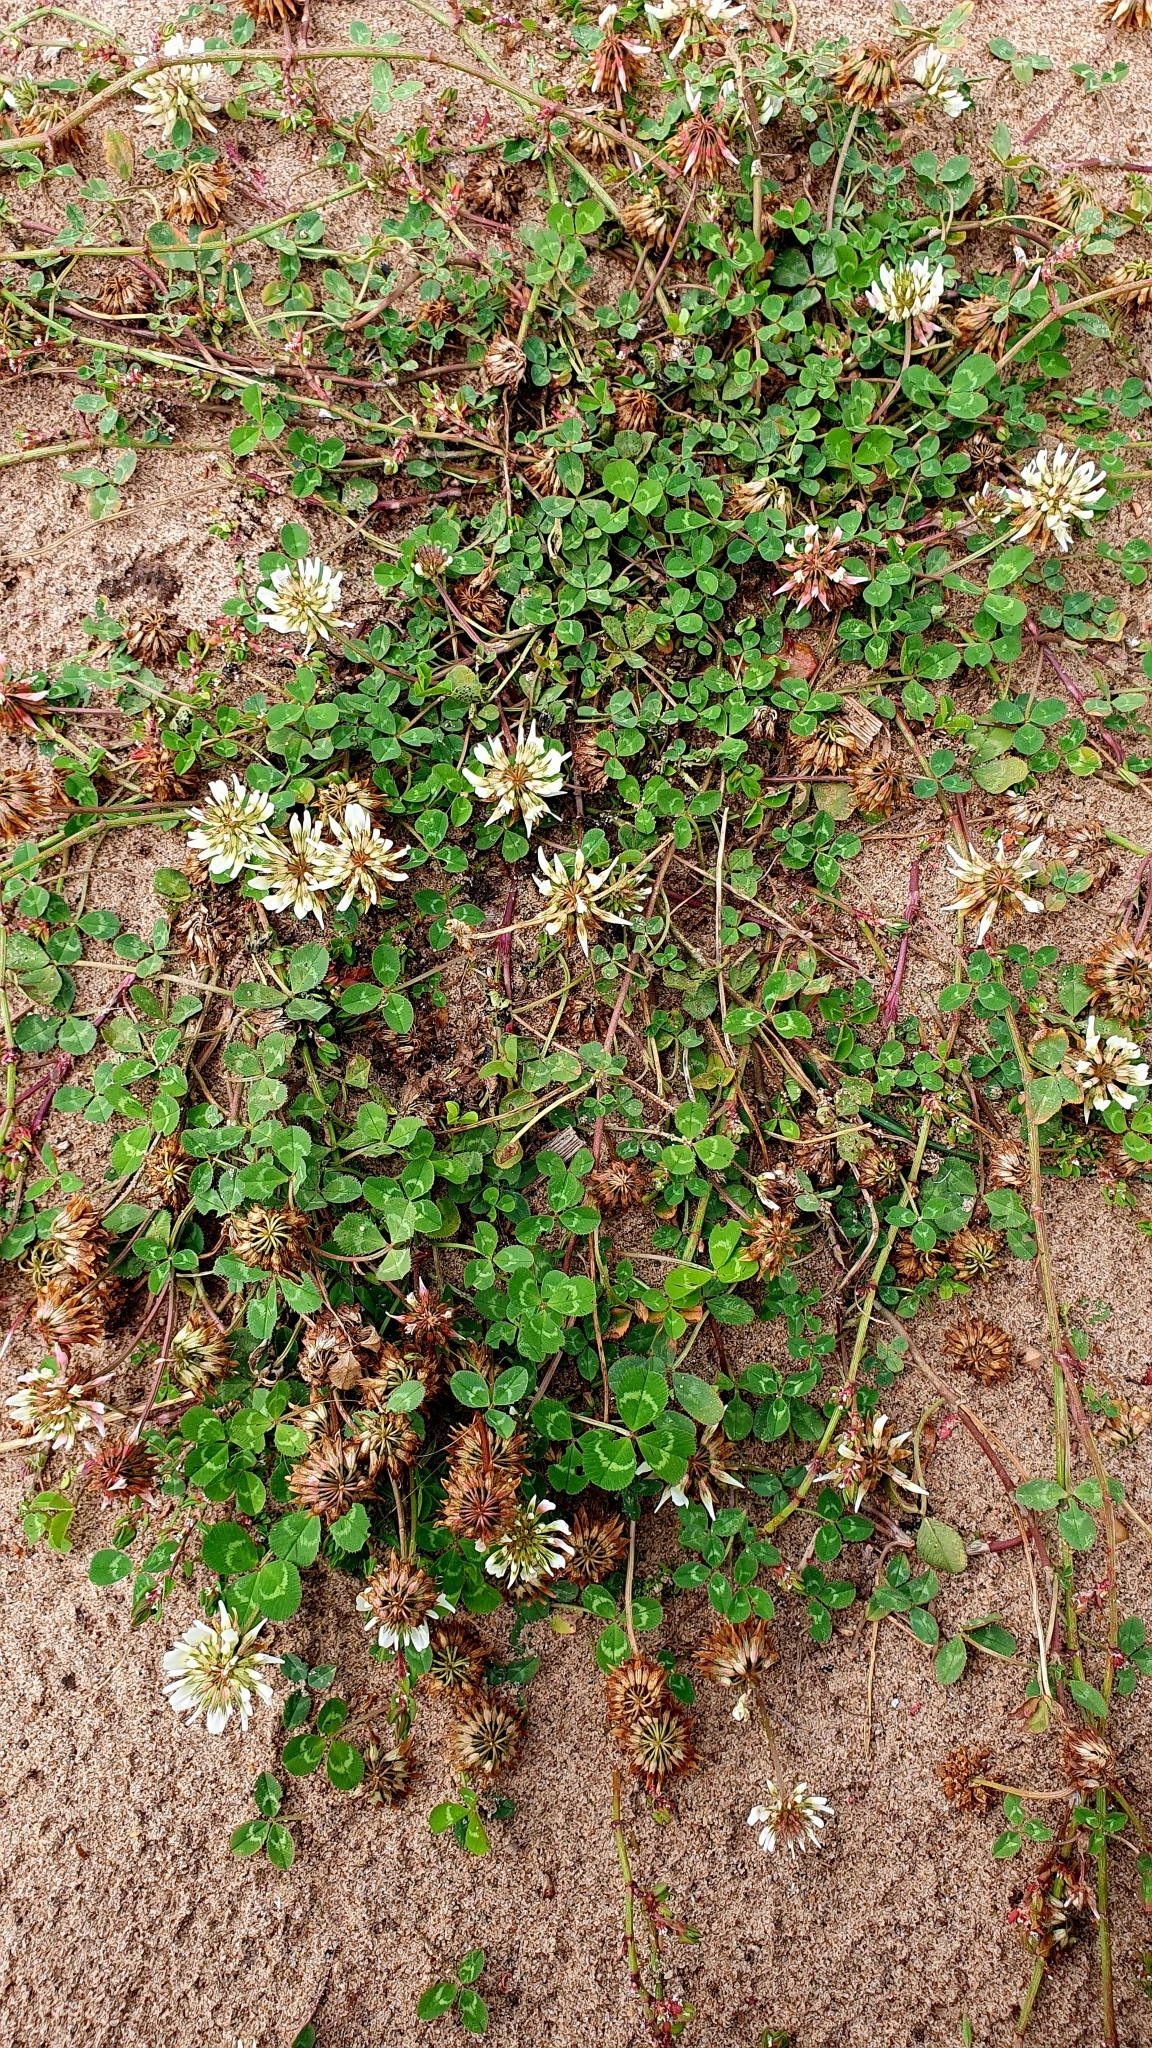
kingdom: Plantae
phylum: Tracheophyta
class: Magnoliopsida
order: Fabales
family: Fabaceae
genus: Trifolium
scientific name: Trifolium repens
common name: White clover
